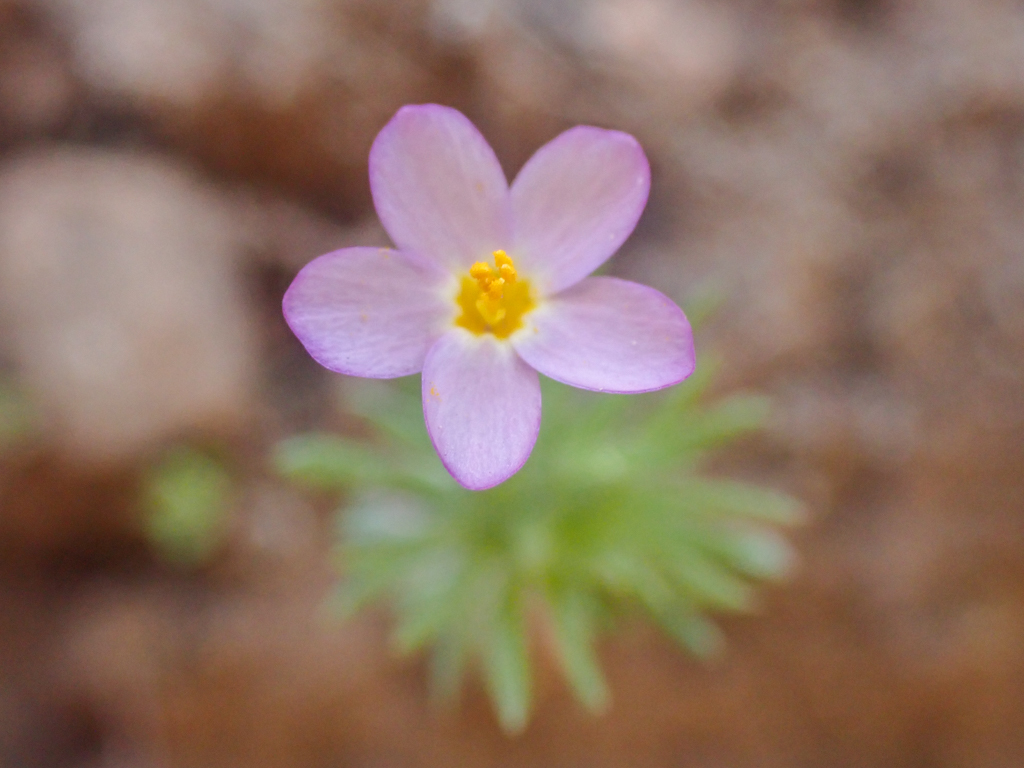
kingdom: Plantae
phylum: Tracheophyta
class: Magnoliopsida
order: Ericales
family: Polemoniaceae
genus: Leptosiphon
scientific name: Leptosiphon bicolor
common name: True babystars
